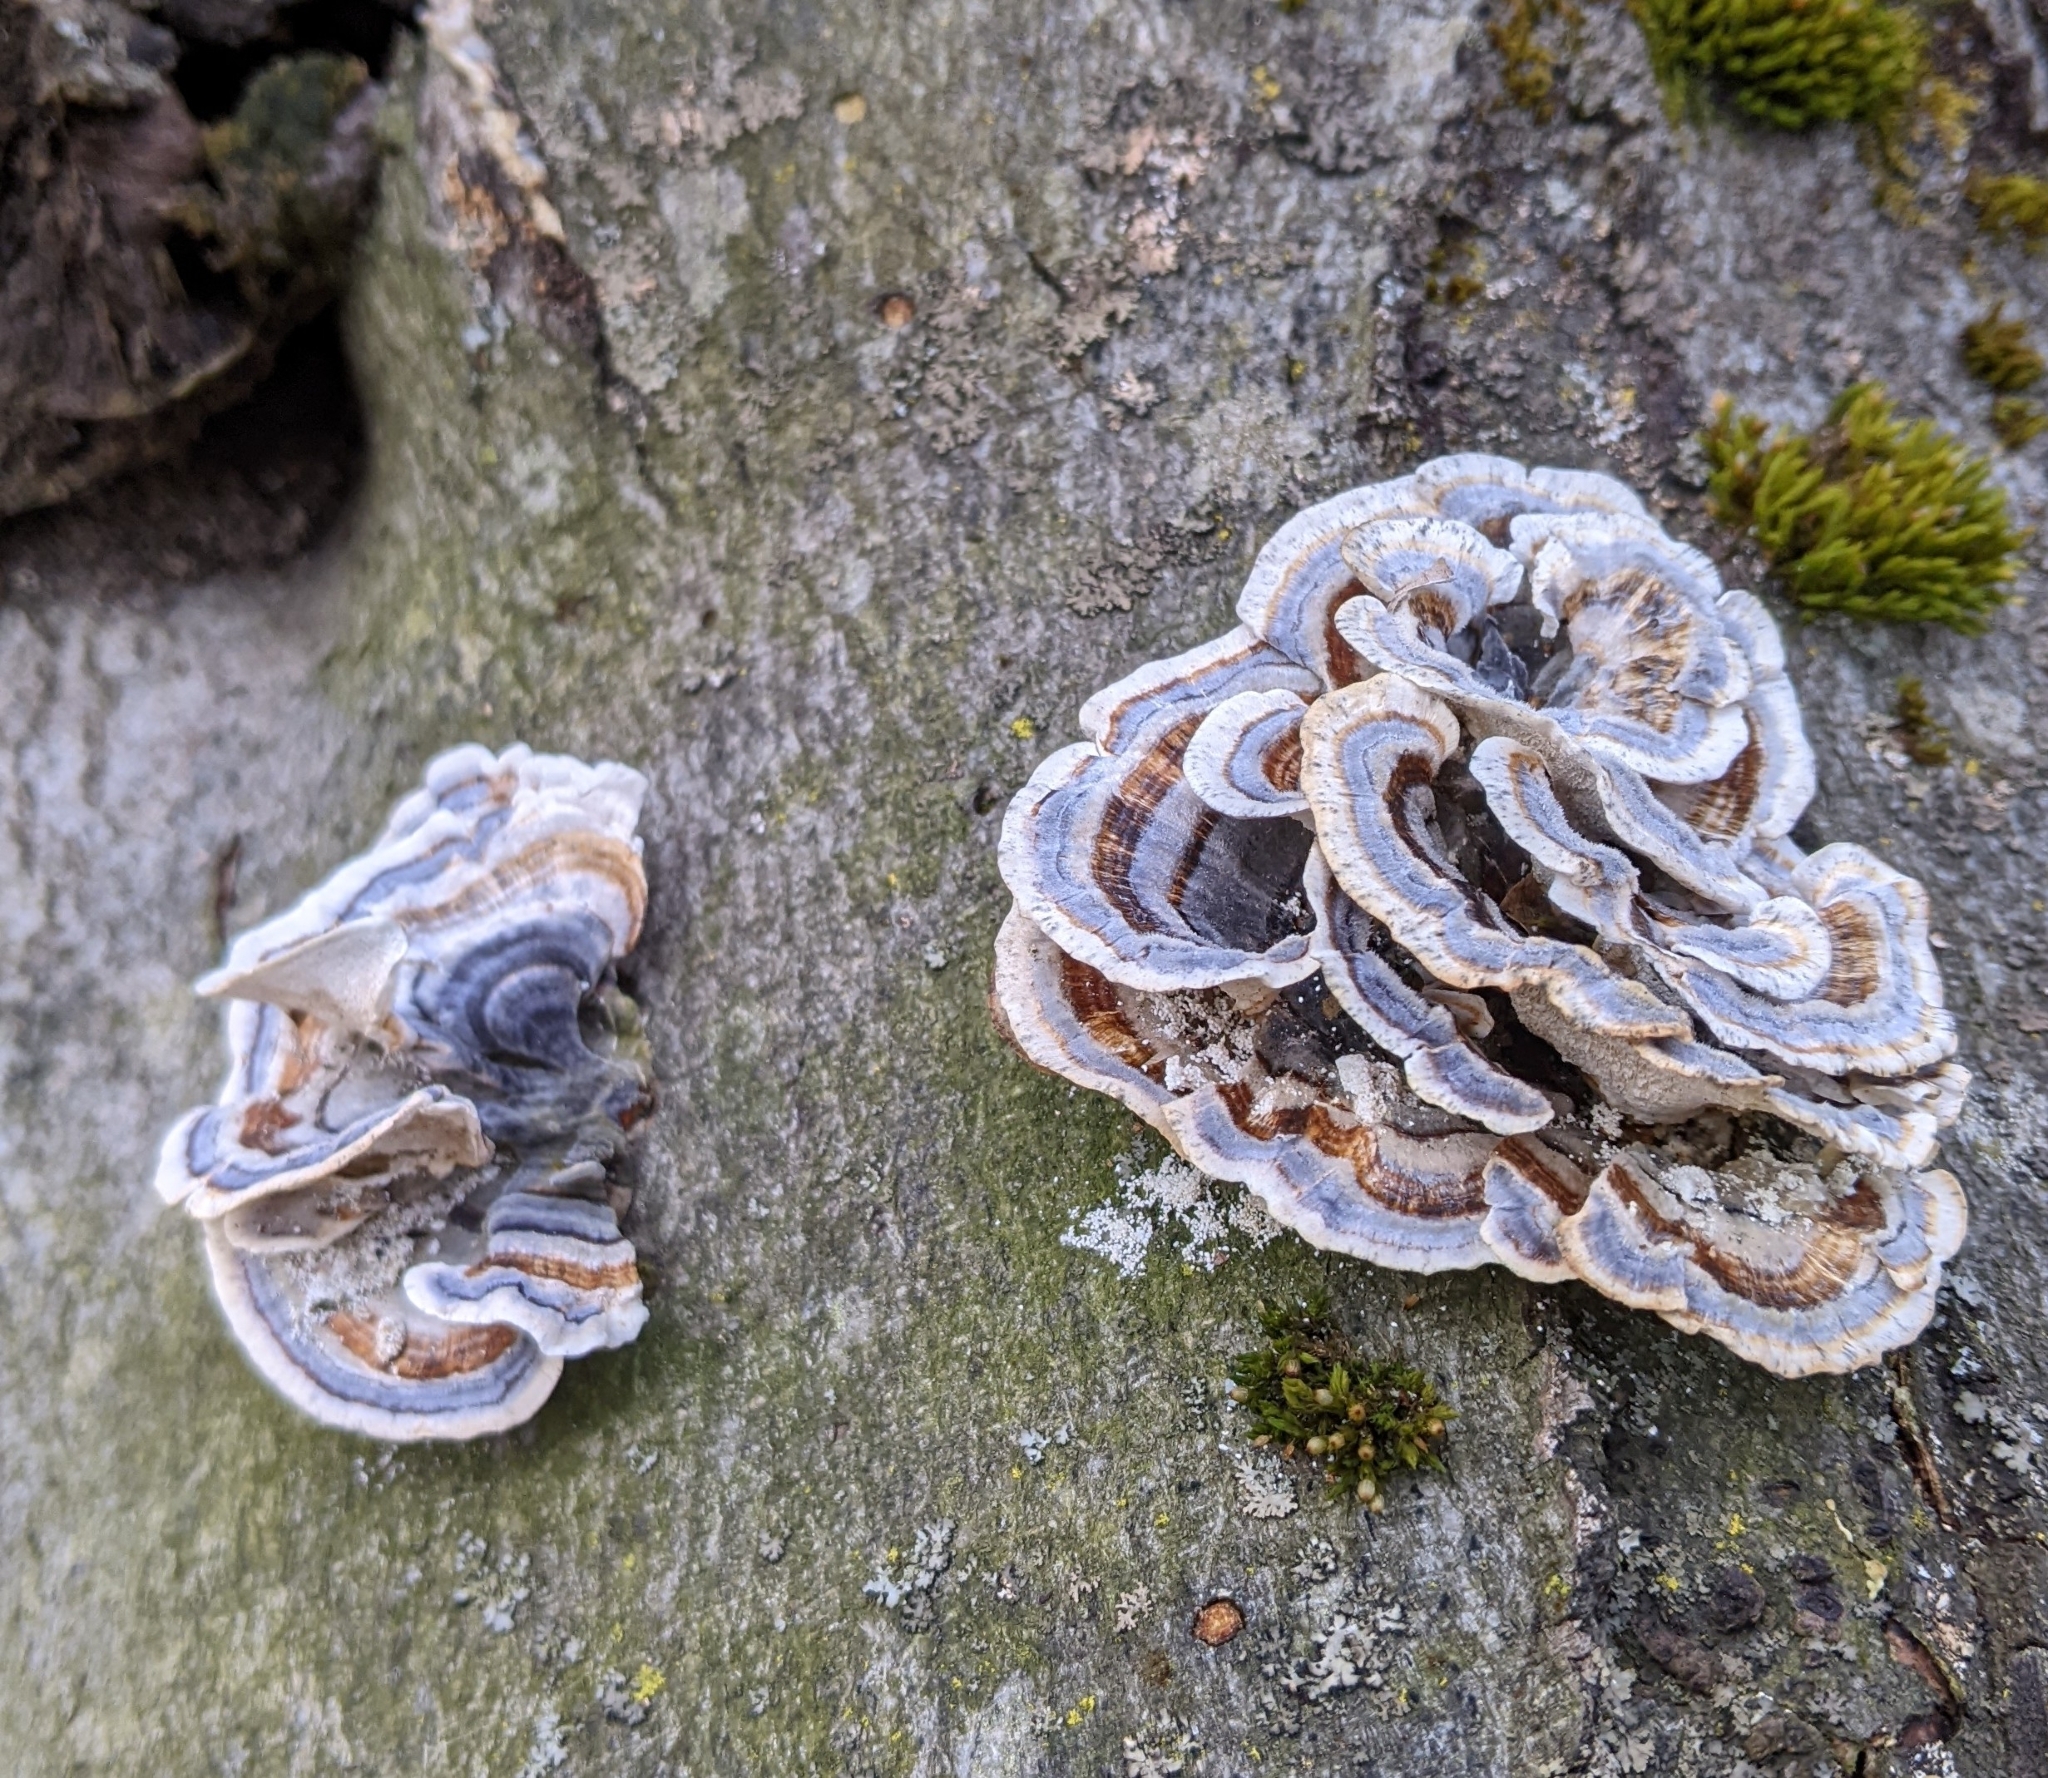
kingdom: Fungi
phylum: Basidiomycota
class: Agaricomycetes
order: Polyporales
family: Polyporaceae
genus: Trametes
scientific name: Trametes versicolor
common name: Turkeytail
